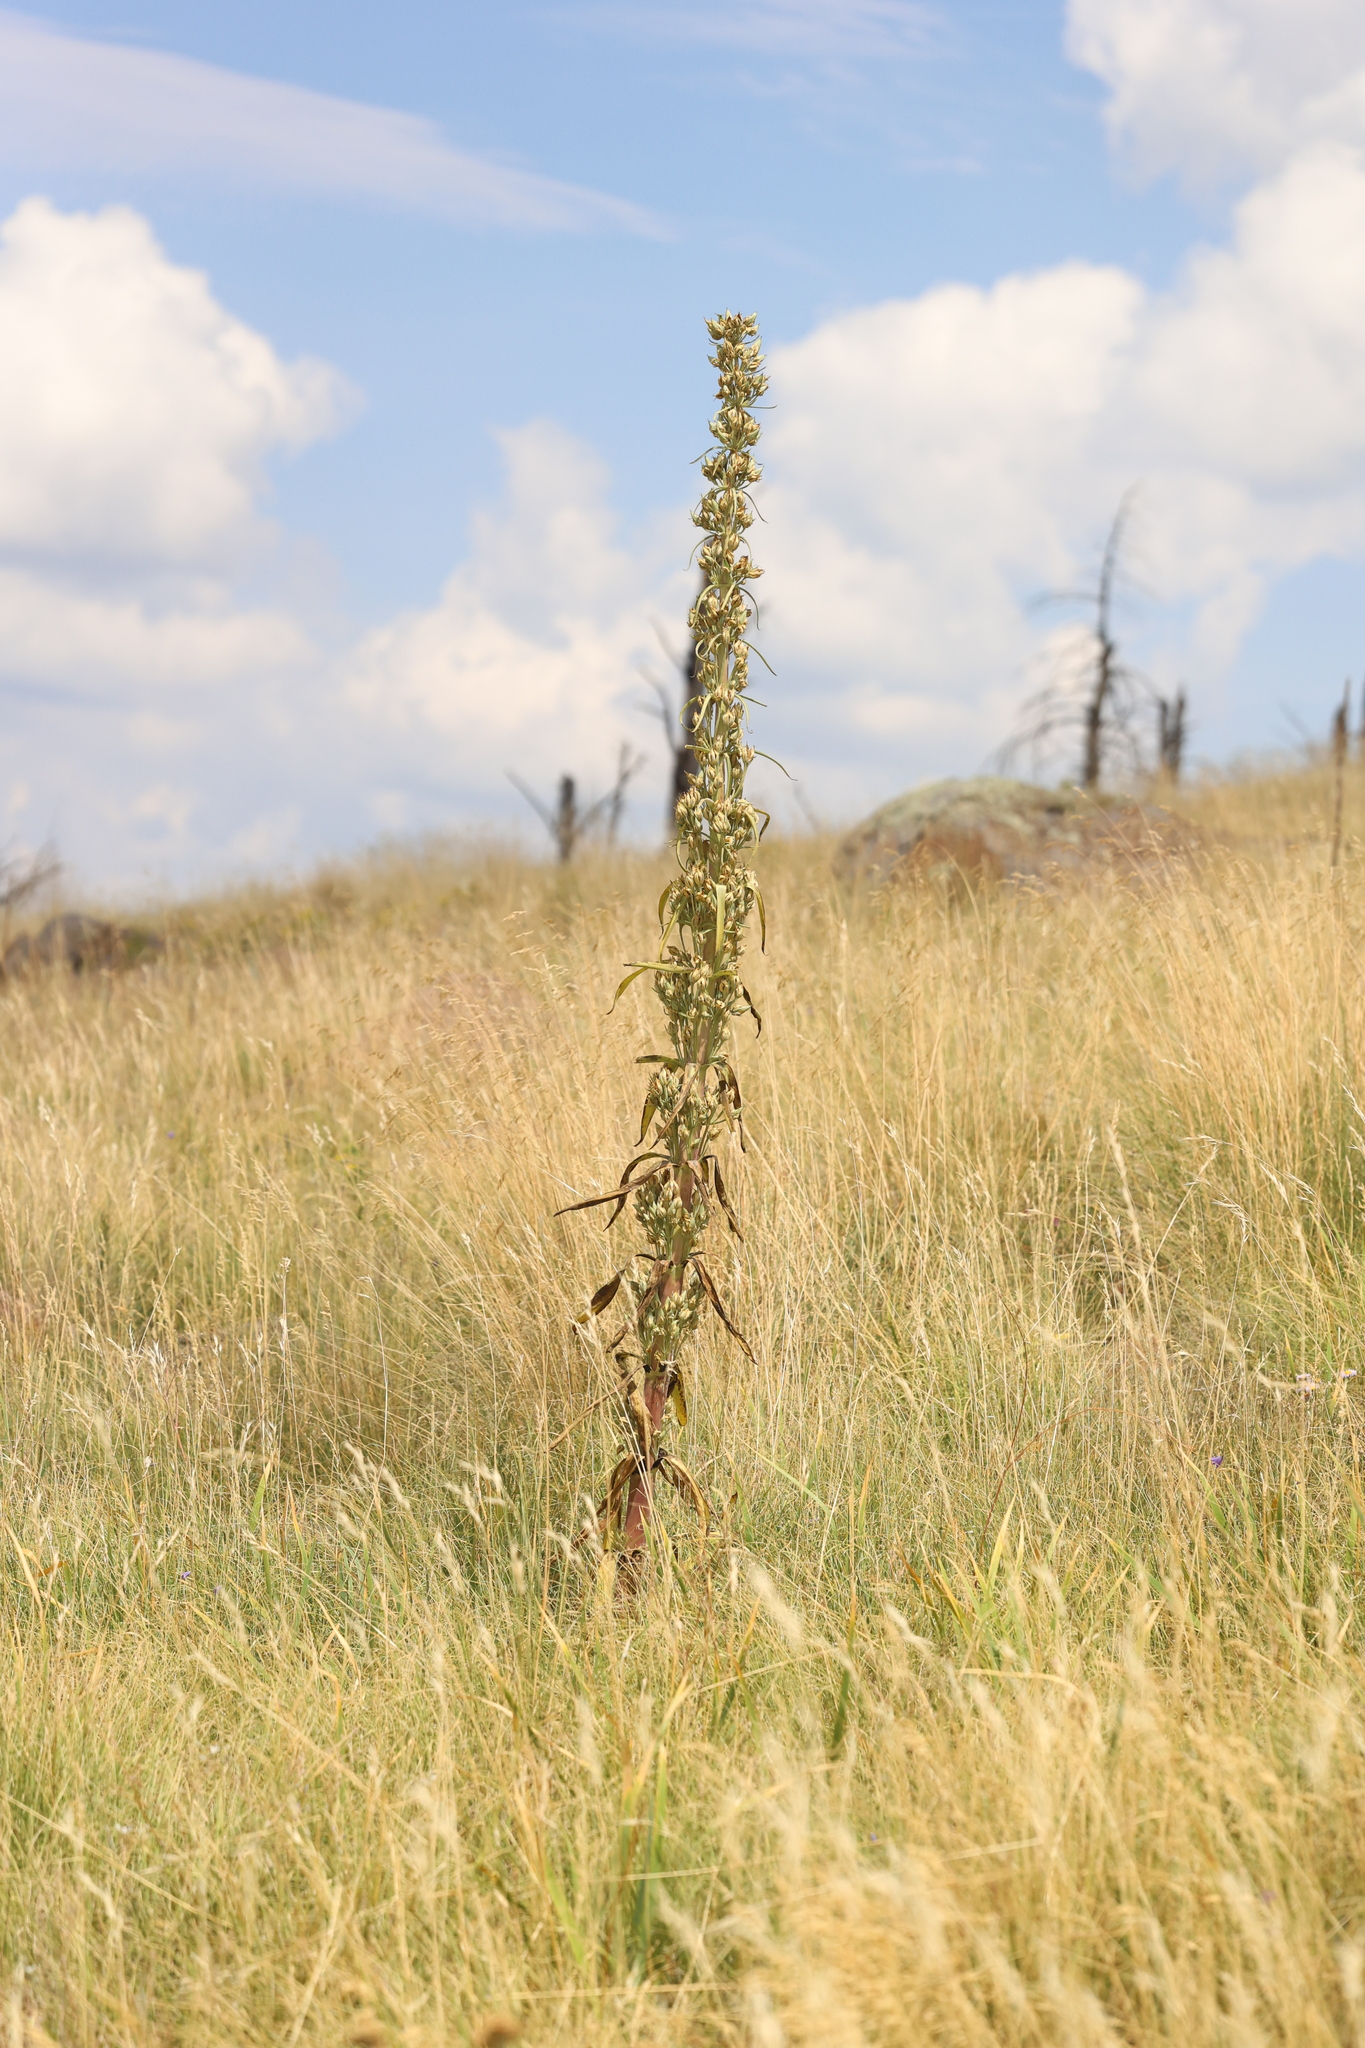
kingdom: Plantae
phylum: Tracheophyta
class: Magnoliopsida
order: Gentianales
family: Gentianaceae
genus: Frasera
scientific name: Frasera speciosa
